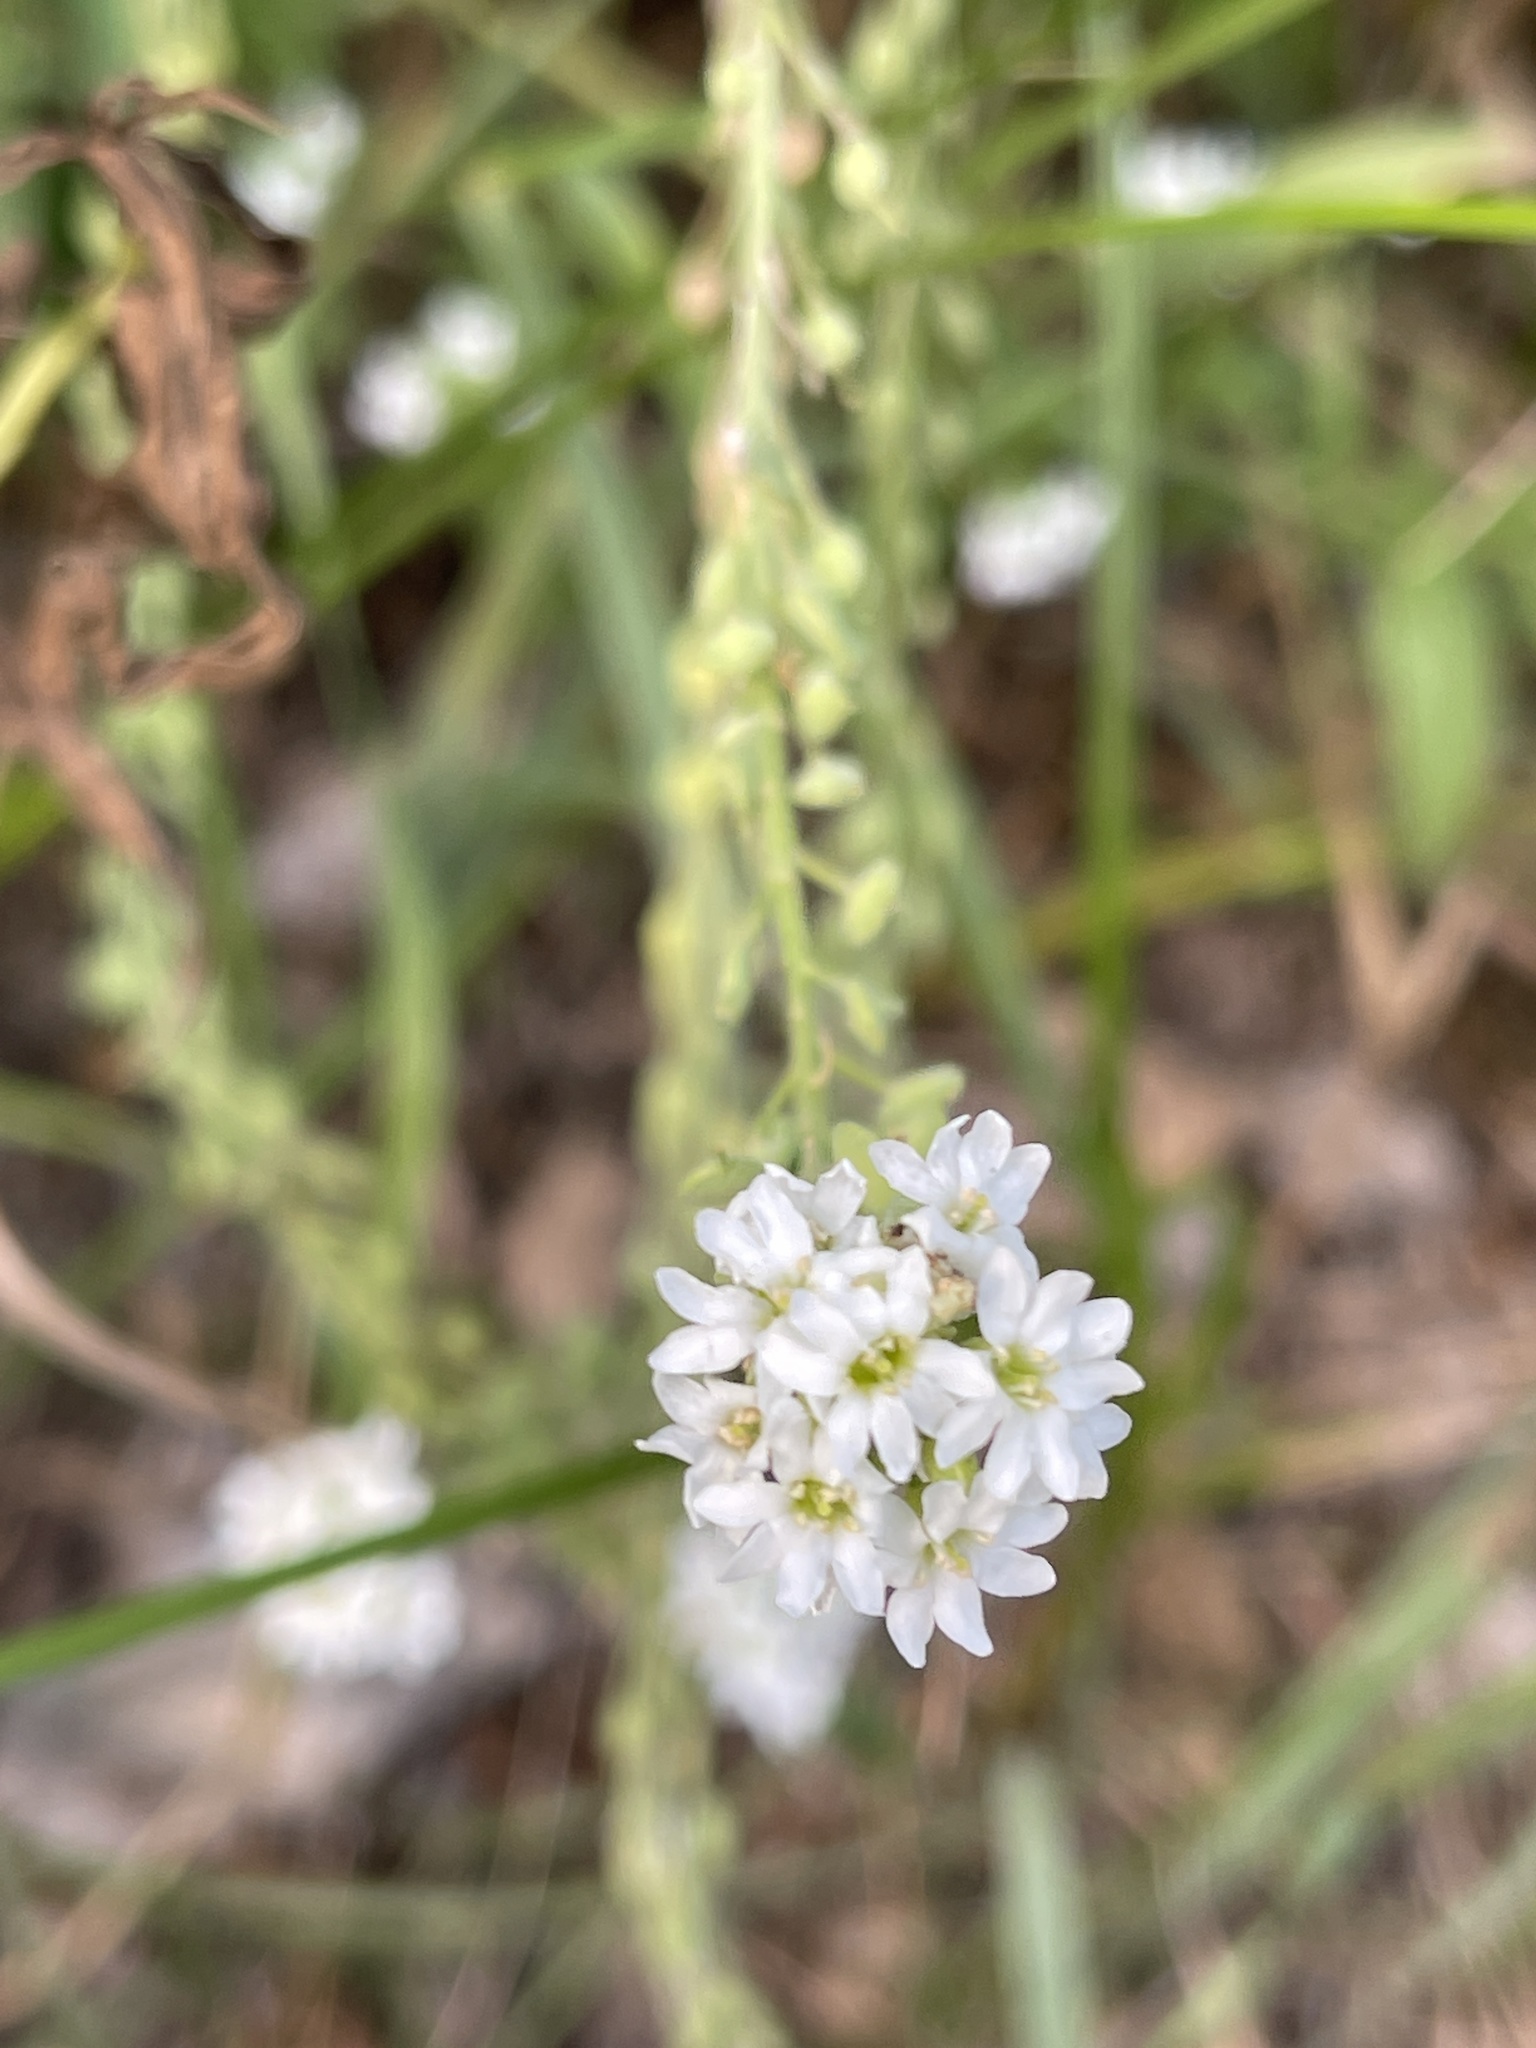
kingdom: Plantae
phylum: Tracheophyta
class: Magnoliopsida
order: Brassicales
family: Brassicaceae
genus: Berteroa
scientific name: Berteroa incana
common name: Hoary alison
